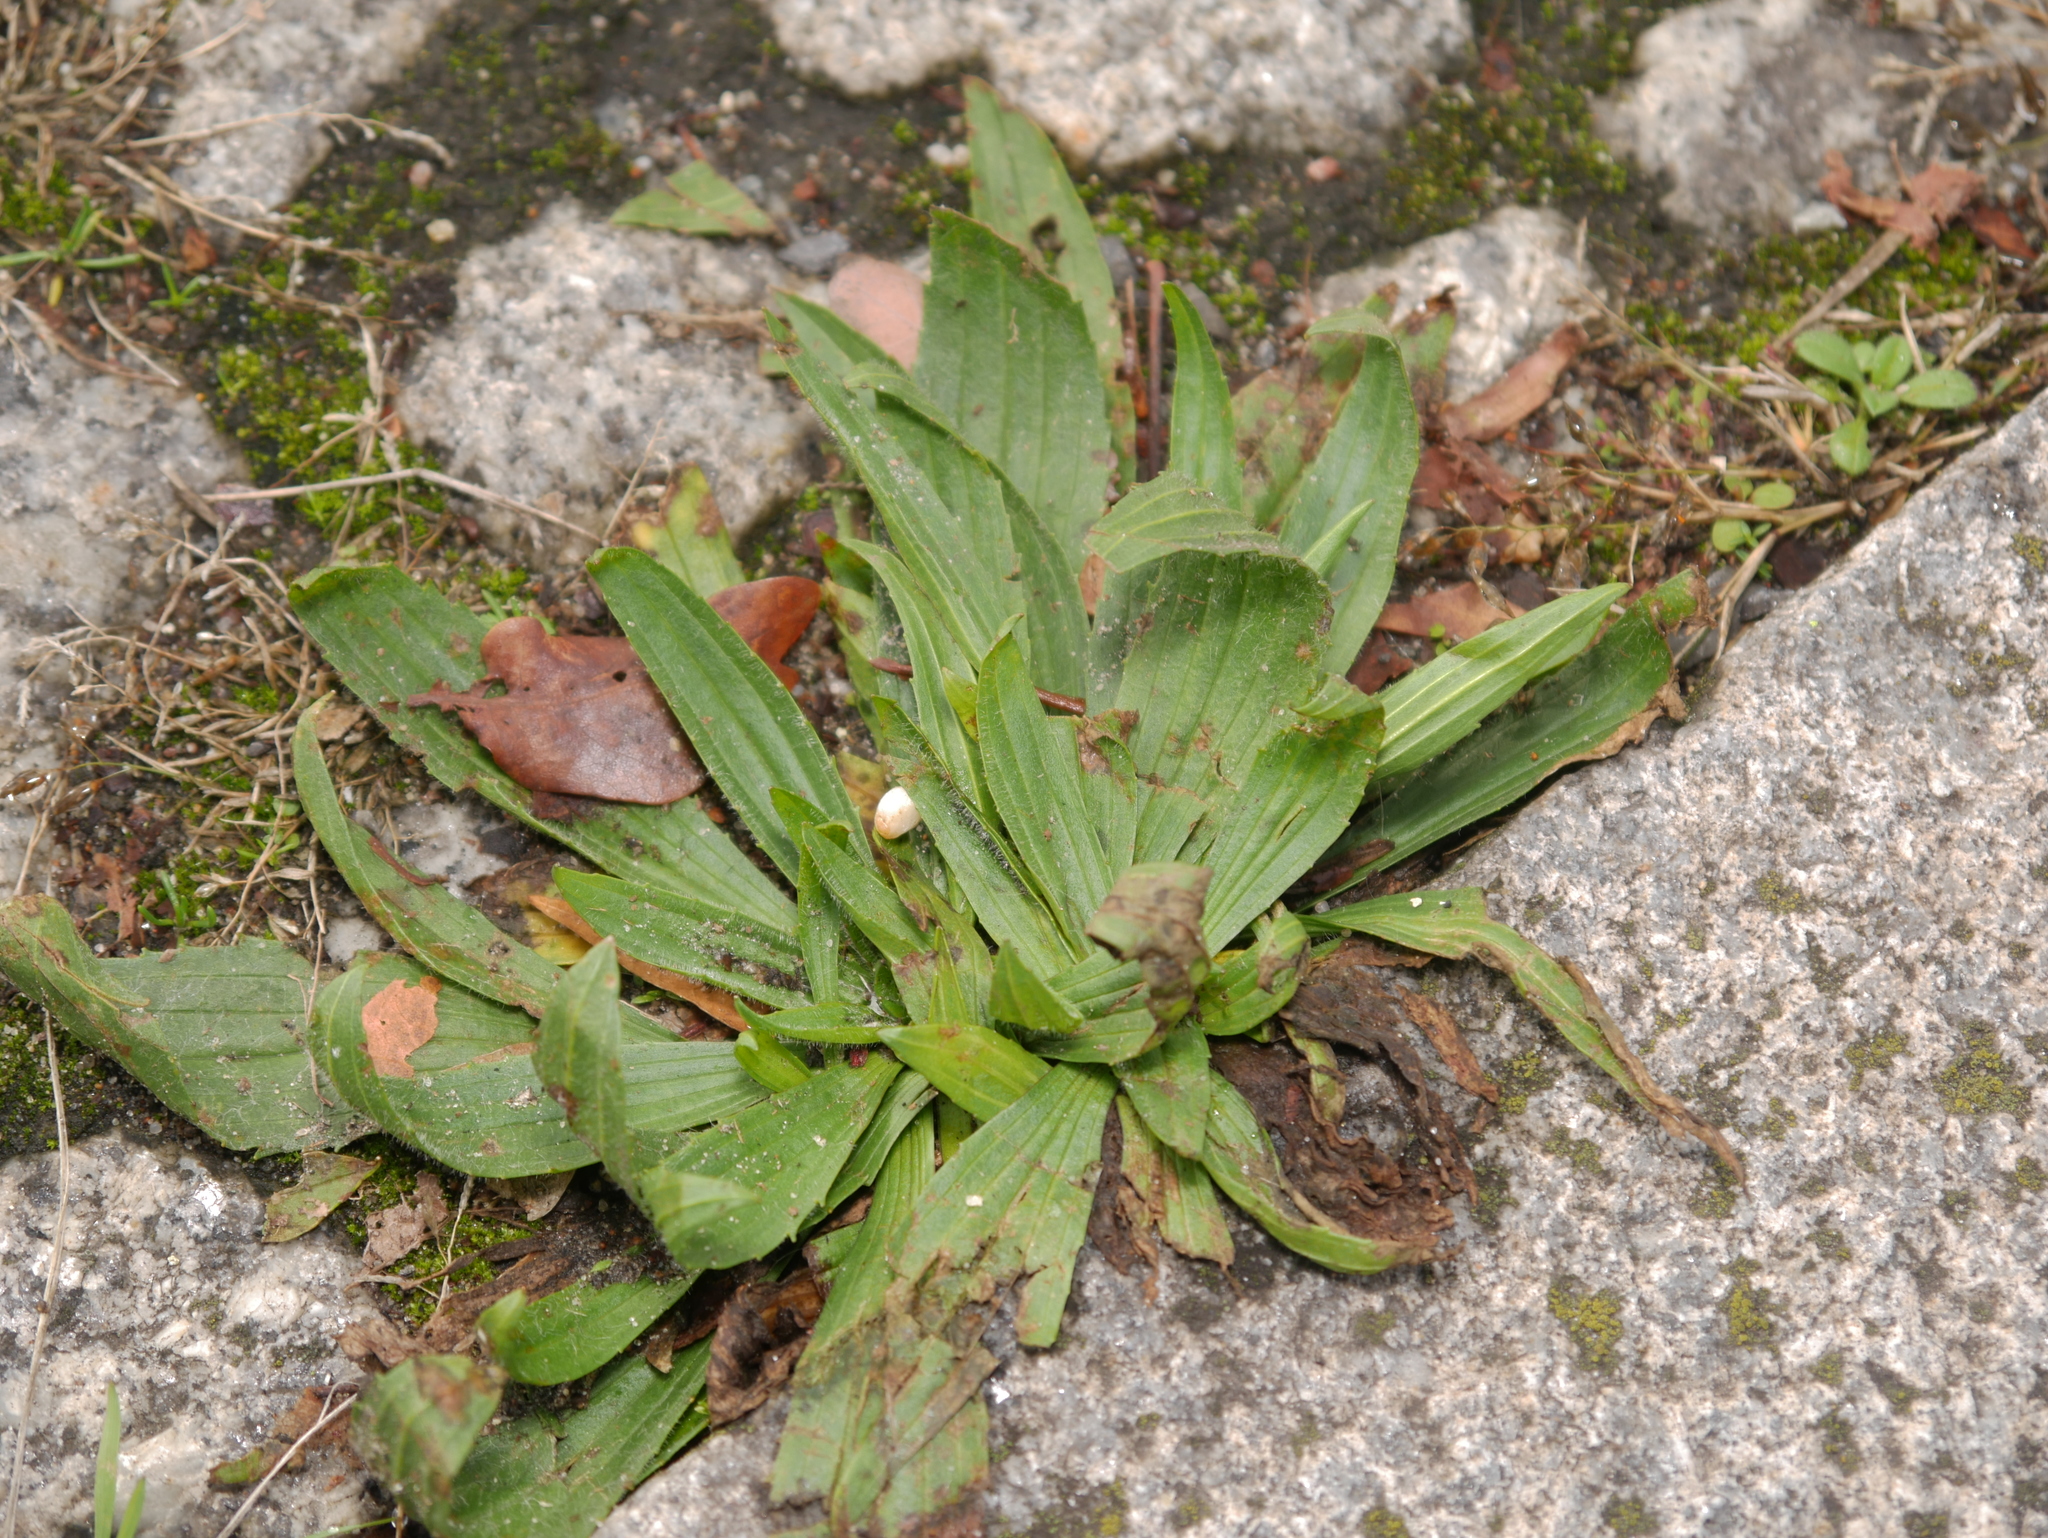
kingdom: Plantae
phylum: Tracheophyta
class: Magnoliopsida
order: Lamiales
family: Plantaginaceae
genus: Plantago
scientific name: Plantago lanceolata
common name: Ribwort plantain
